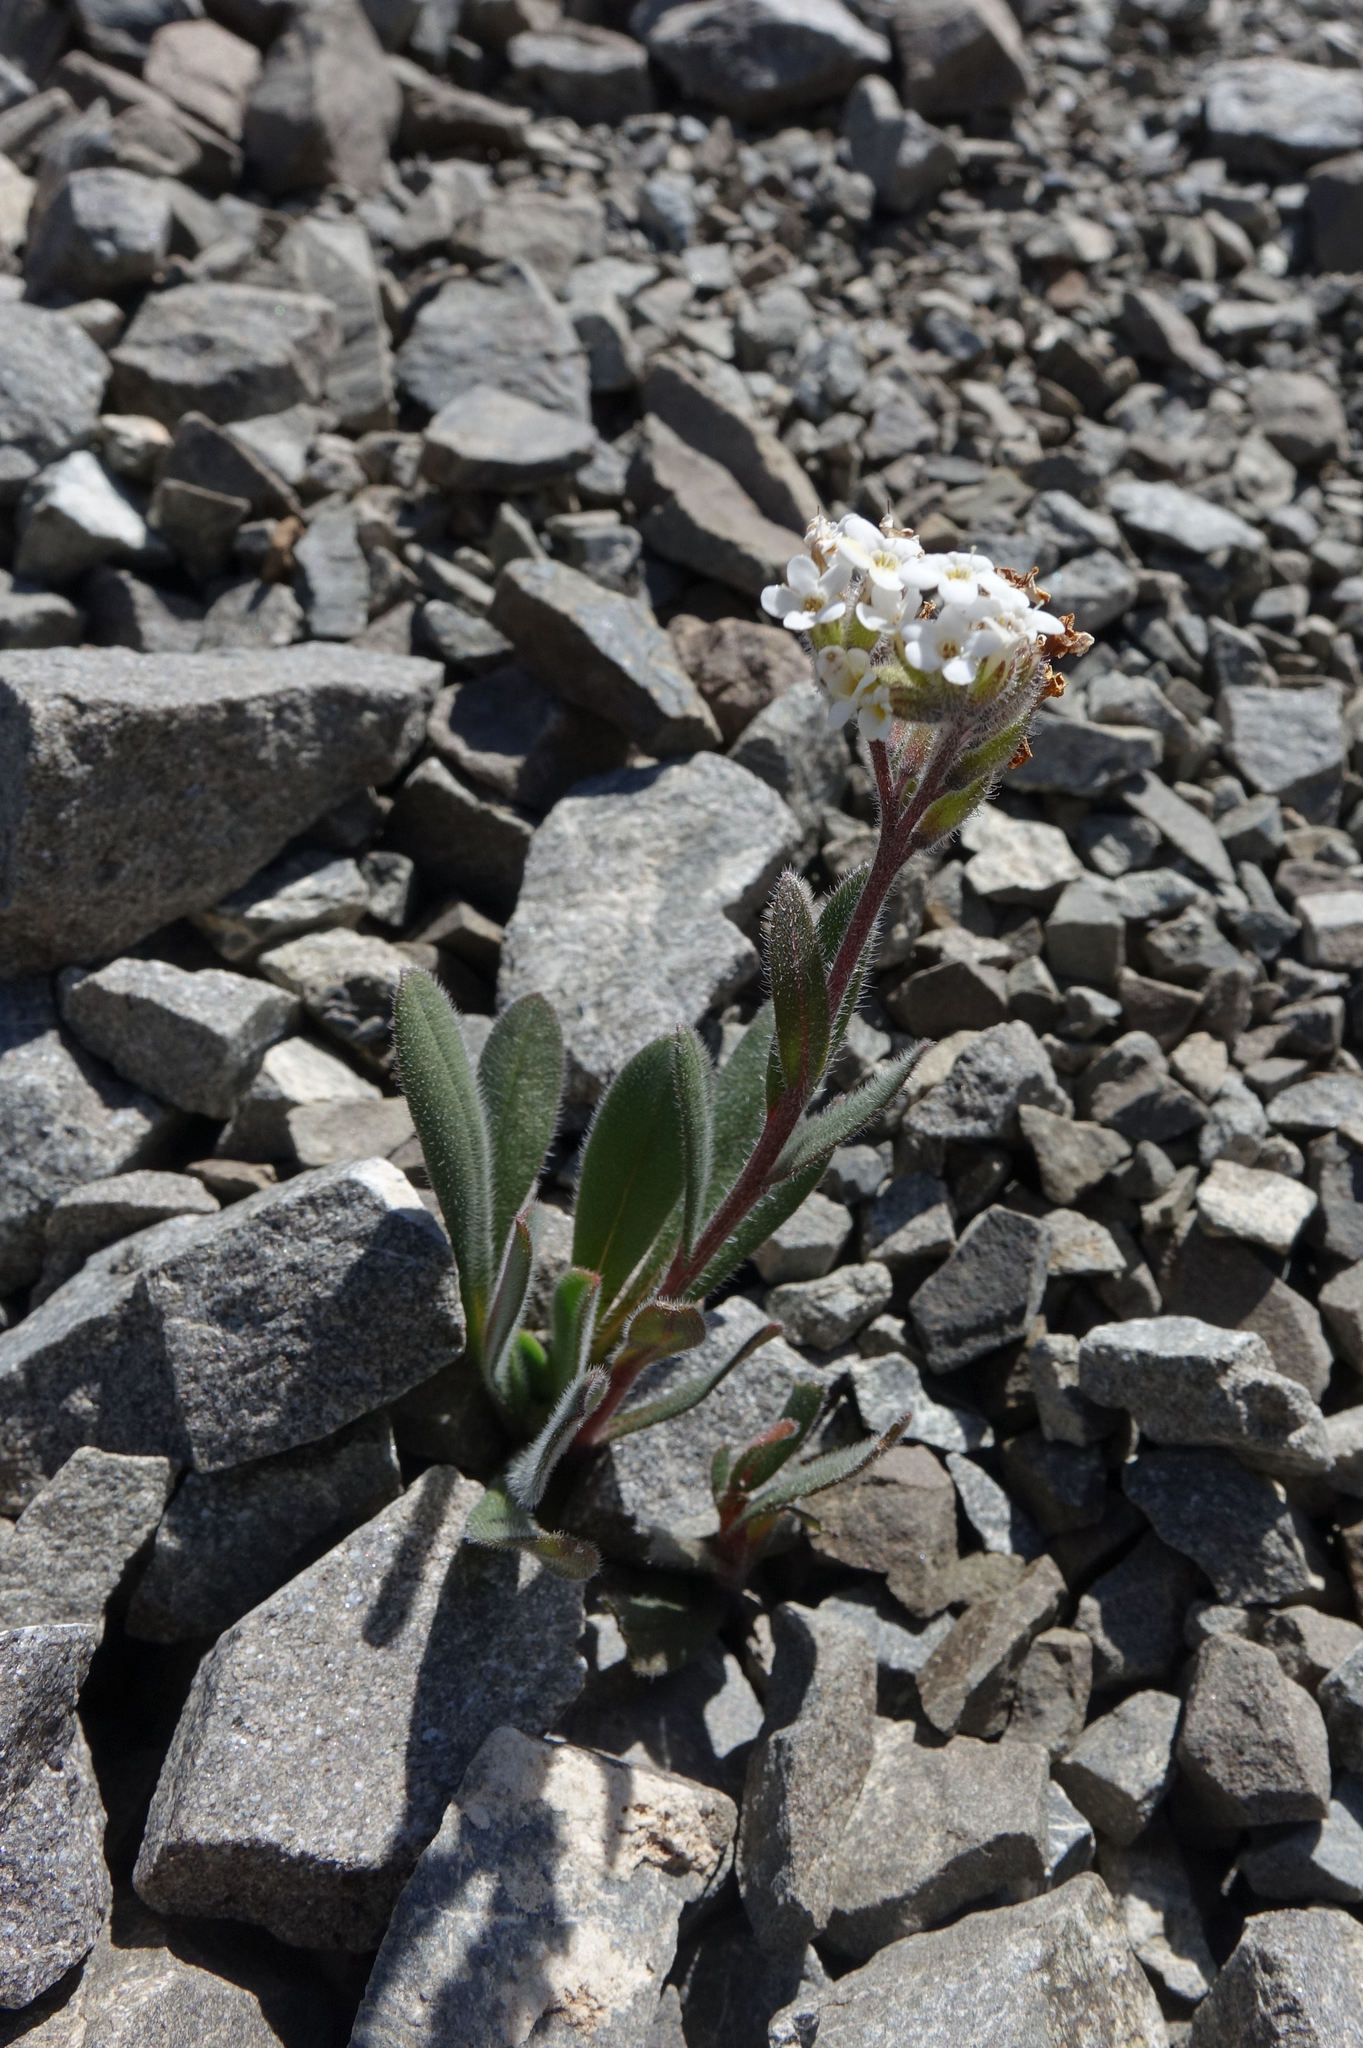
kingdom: Plantae
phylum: Tracheophyta
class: Magnoliopsida
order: Boraginales
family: Boraginaceae
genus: Myosotis
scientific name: Myosotis traversii
